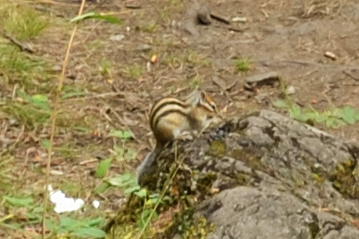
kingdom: Animalia
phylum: Chordata
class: Mammalia
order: Rodentia
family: Sciuridae
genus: Tamias
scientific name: Tamias sibiricus
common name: Siberian chipmunk
